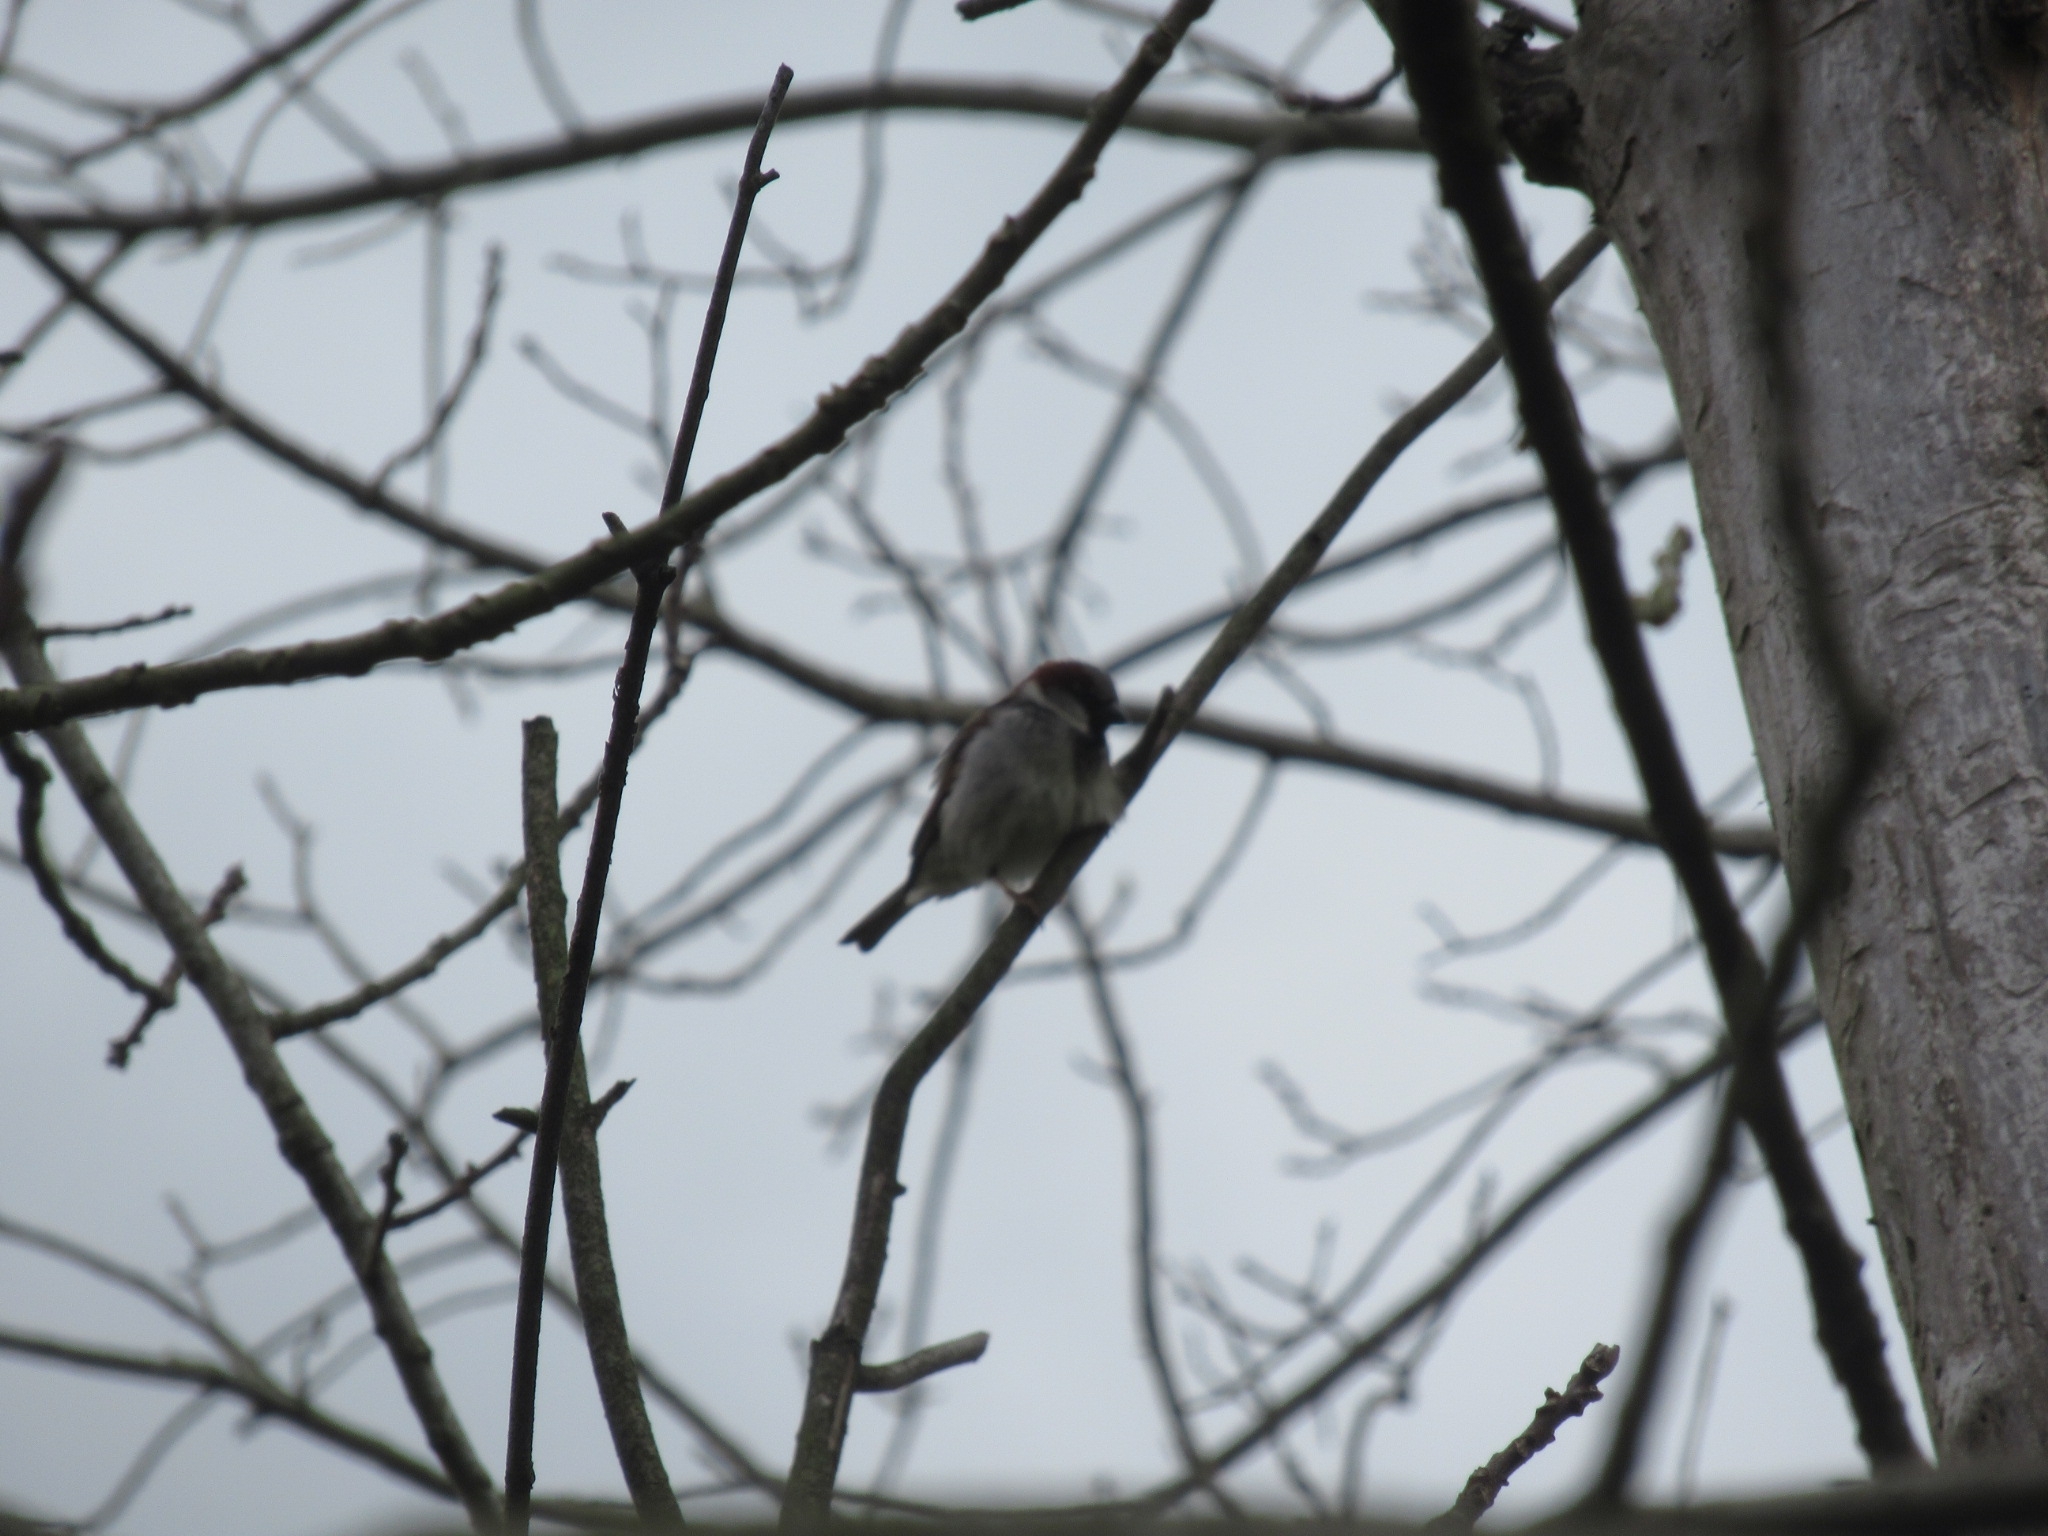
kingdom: Animalia
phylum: Chordata
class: Aves
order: Passeriformes
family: Passeridae
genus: Passer
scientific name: Passer domesticus
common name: House sparrow
